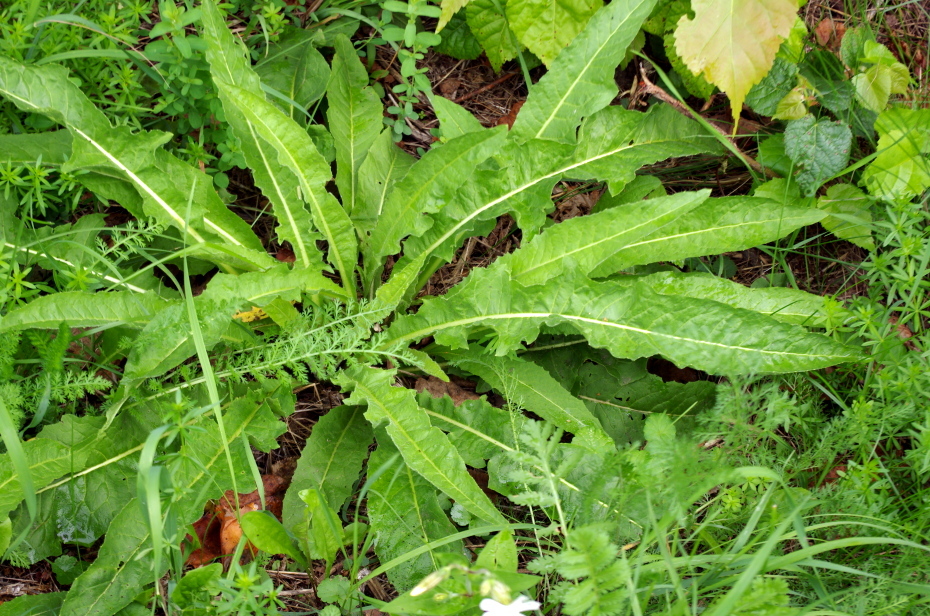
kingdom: Plantae
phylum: Tracheophyta
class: Magnoliopsida
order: Brassicales
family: Brassicaceae
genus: Bunias
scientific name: Bunias orientalis
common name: Warty-cabbage
